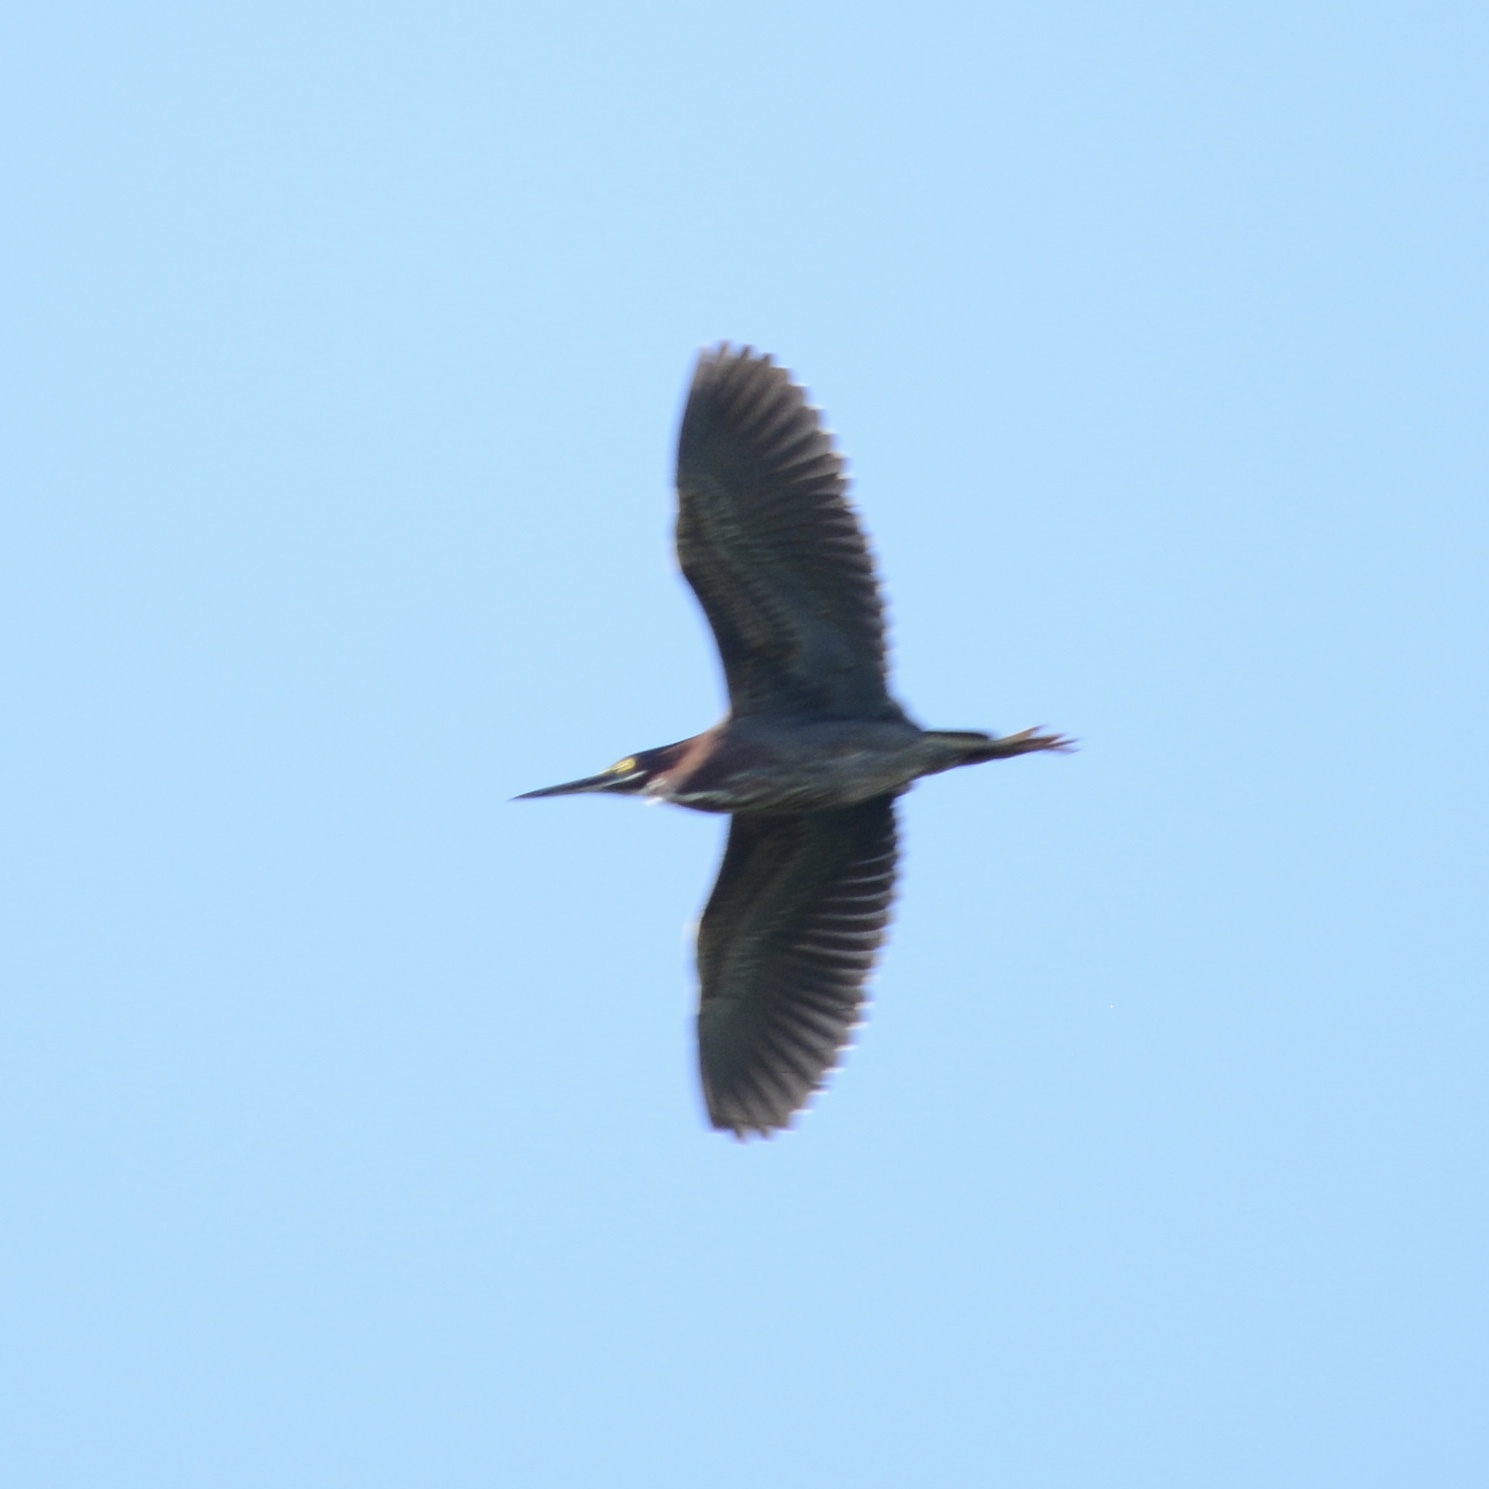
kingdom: Animalia
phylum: Chordata
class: Aves
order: Pelecaniformes
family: Ardeidae
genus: Butorides
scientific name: Butorides virescens
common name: Green heron
